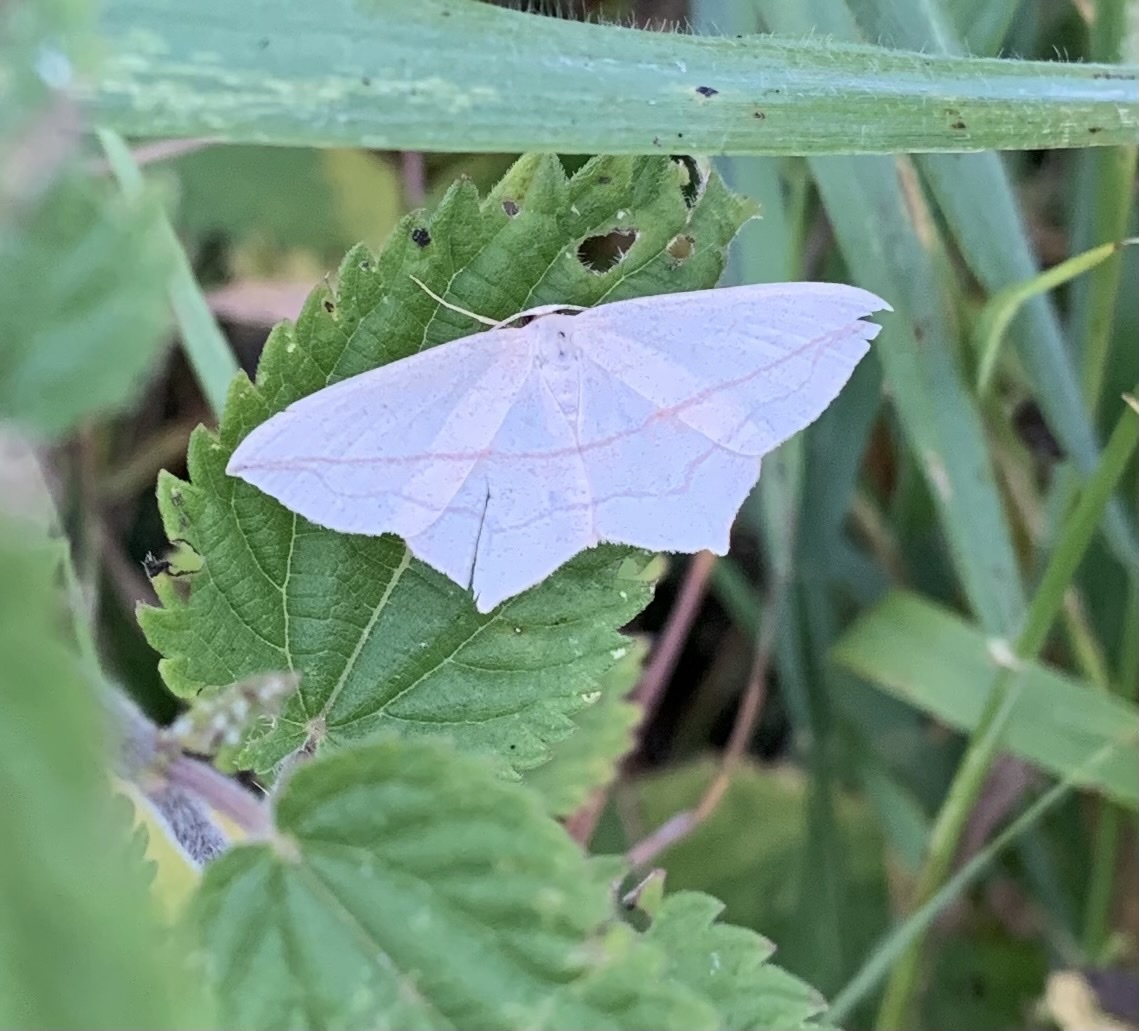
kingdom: Animalia
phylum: Arthropoda
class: Insecta
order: Lepidoptera
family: Geometridae
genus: Timandra
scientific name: Timandra comae
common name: Blood-vein
